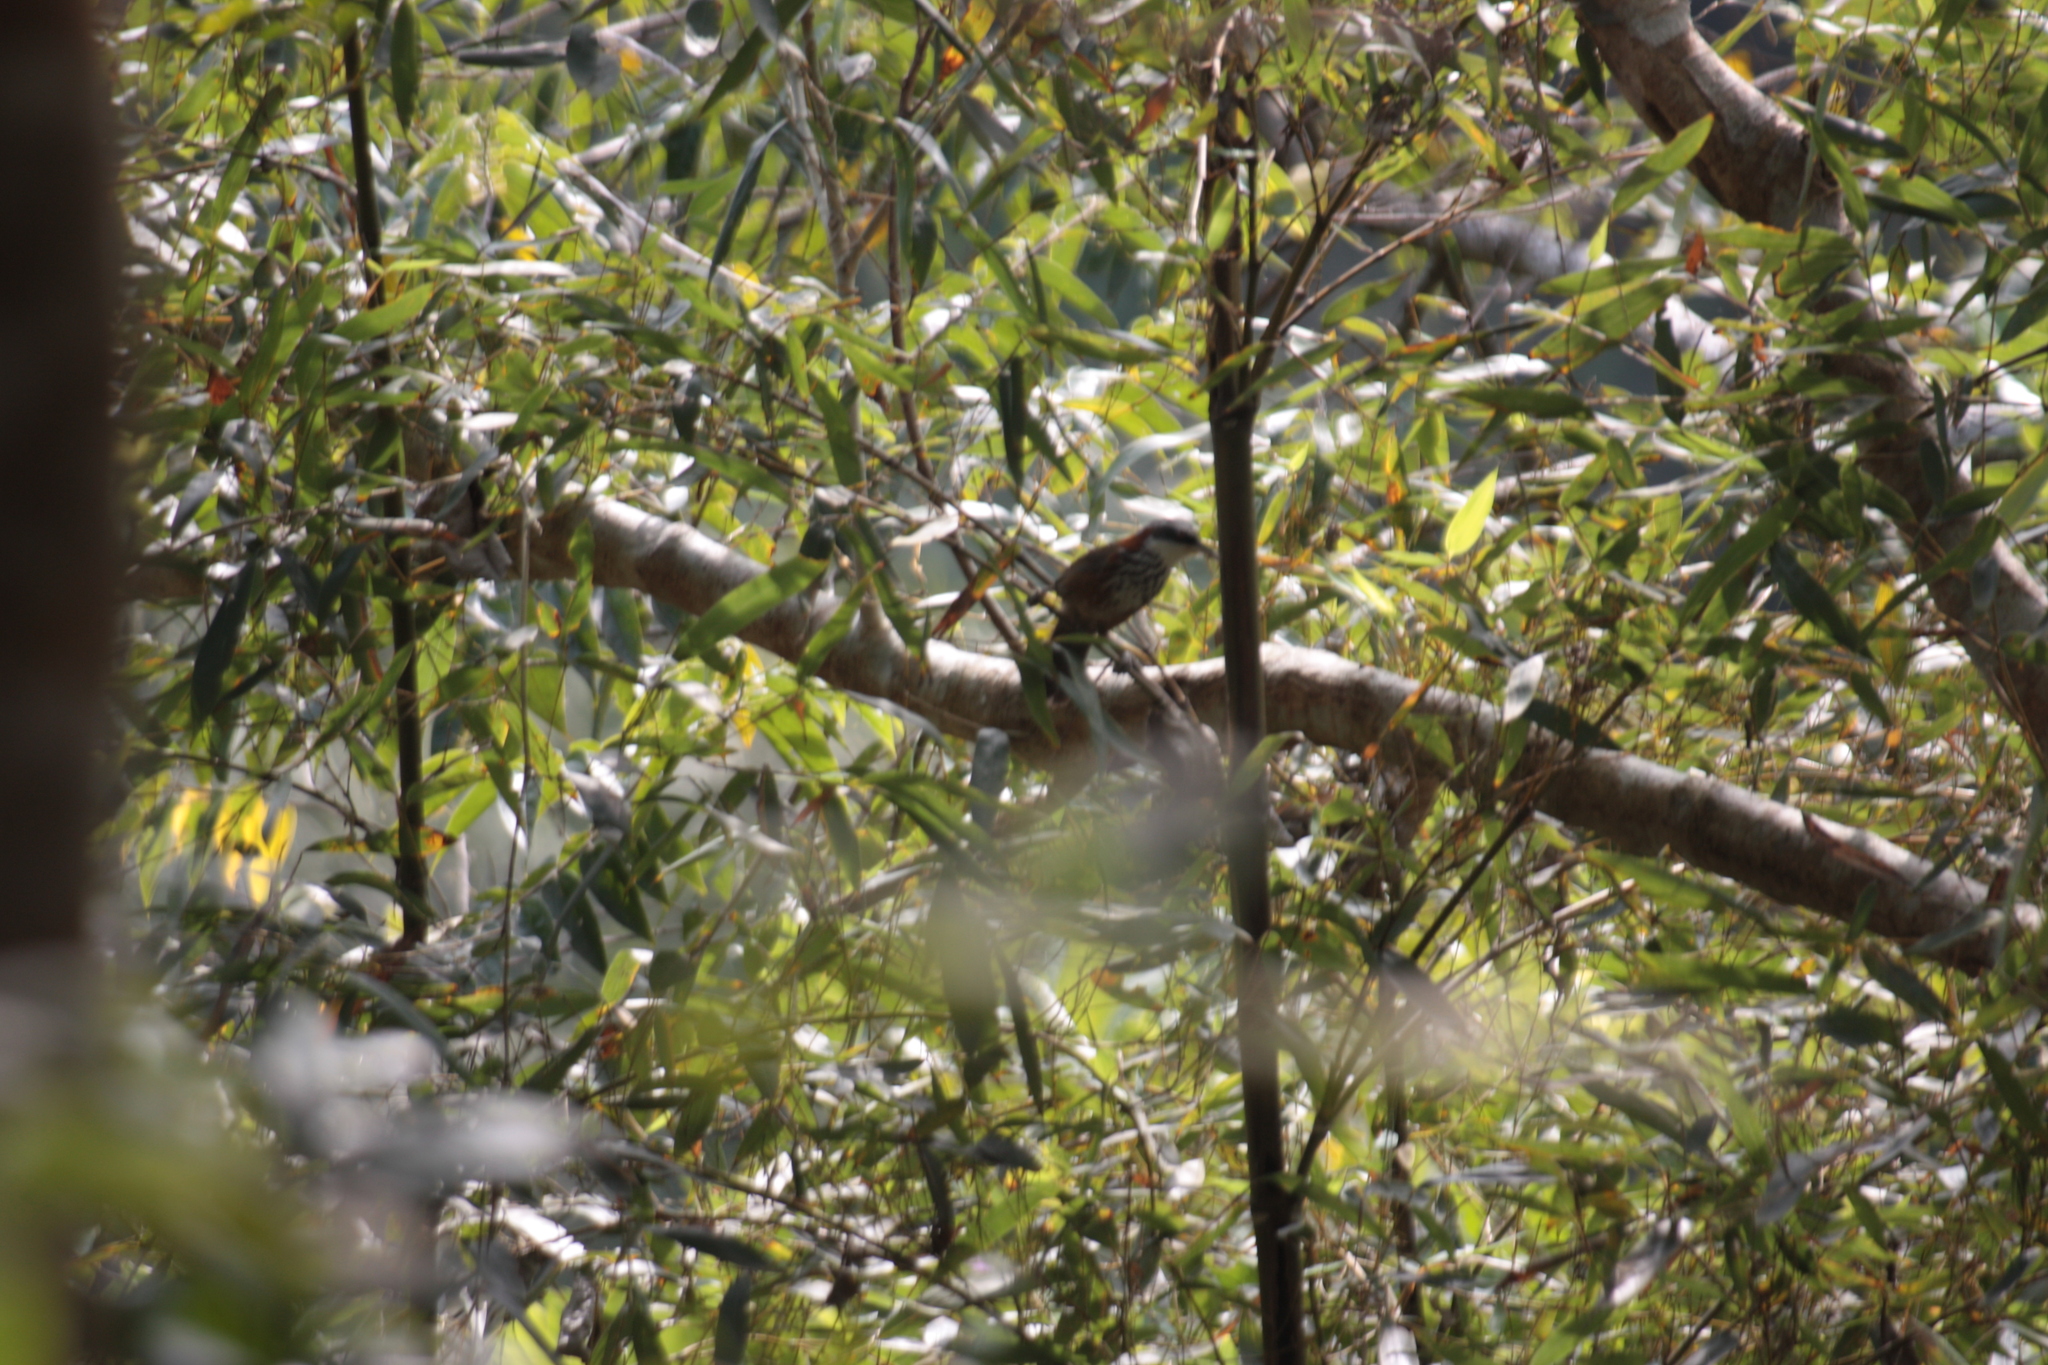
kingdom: Animalia
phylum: Chordata
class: Aves
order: Passeriformes
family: Timaliidae
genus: Pomatorhinus
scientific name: Pomatorhinus musicus
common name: Taiwan scimitar-babbler
